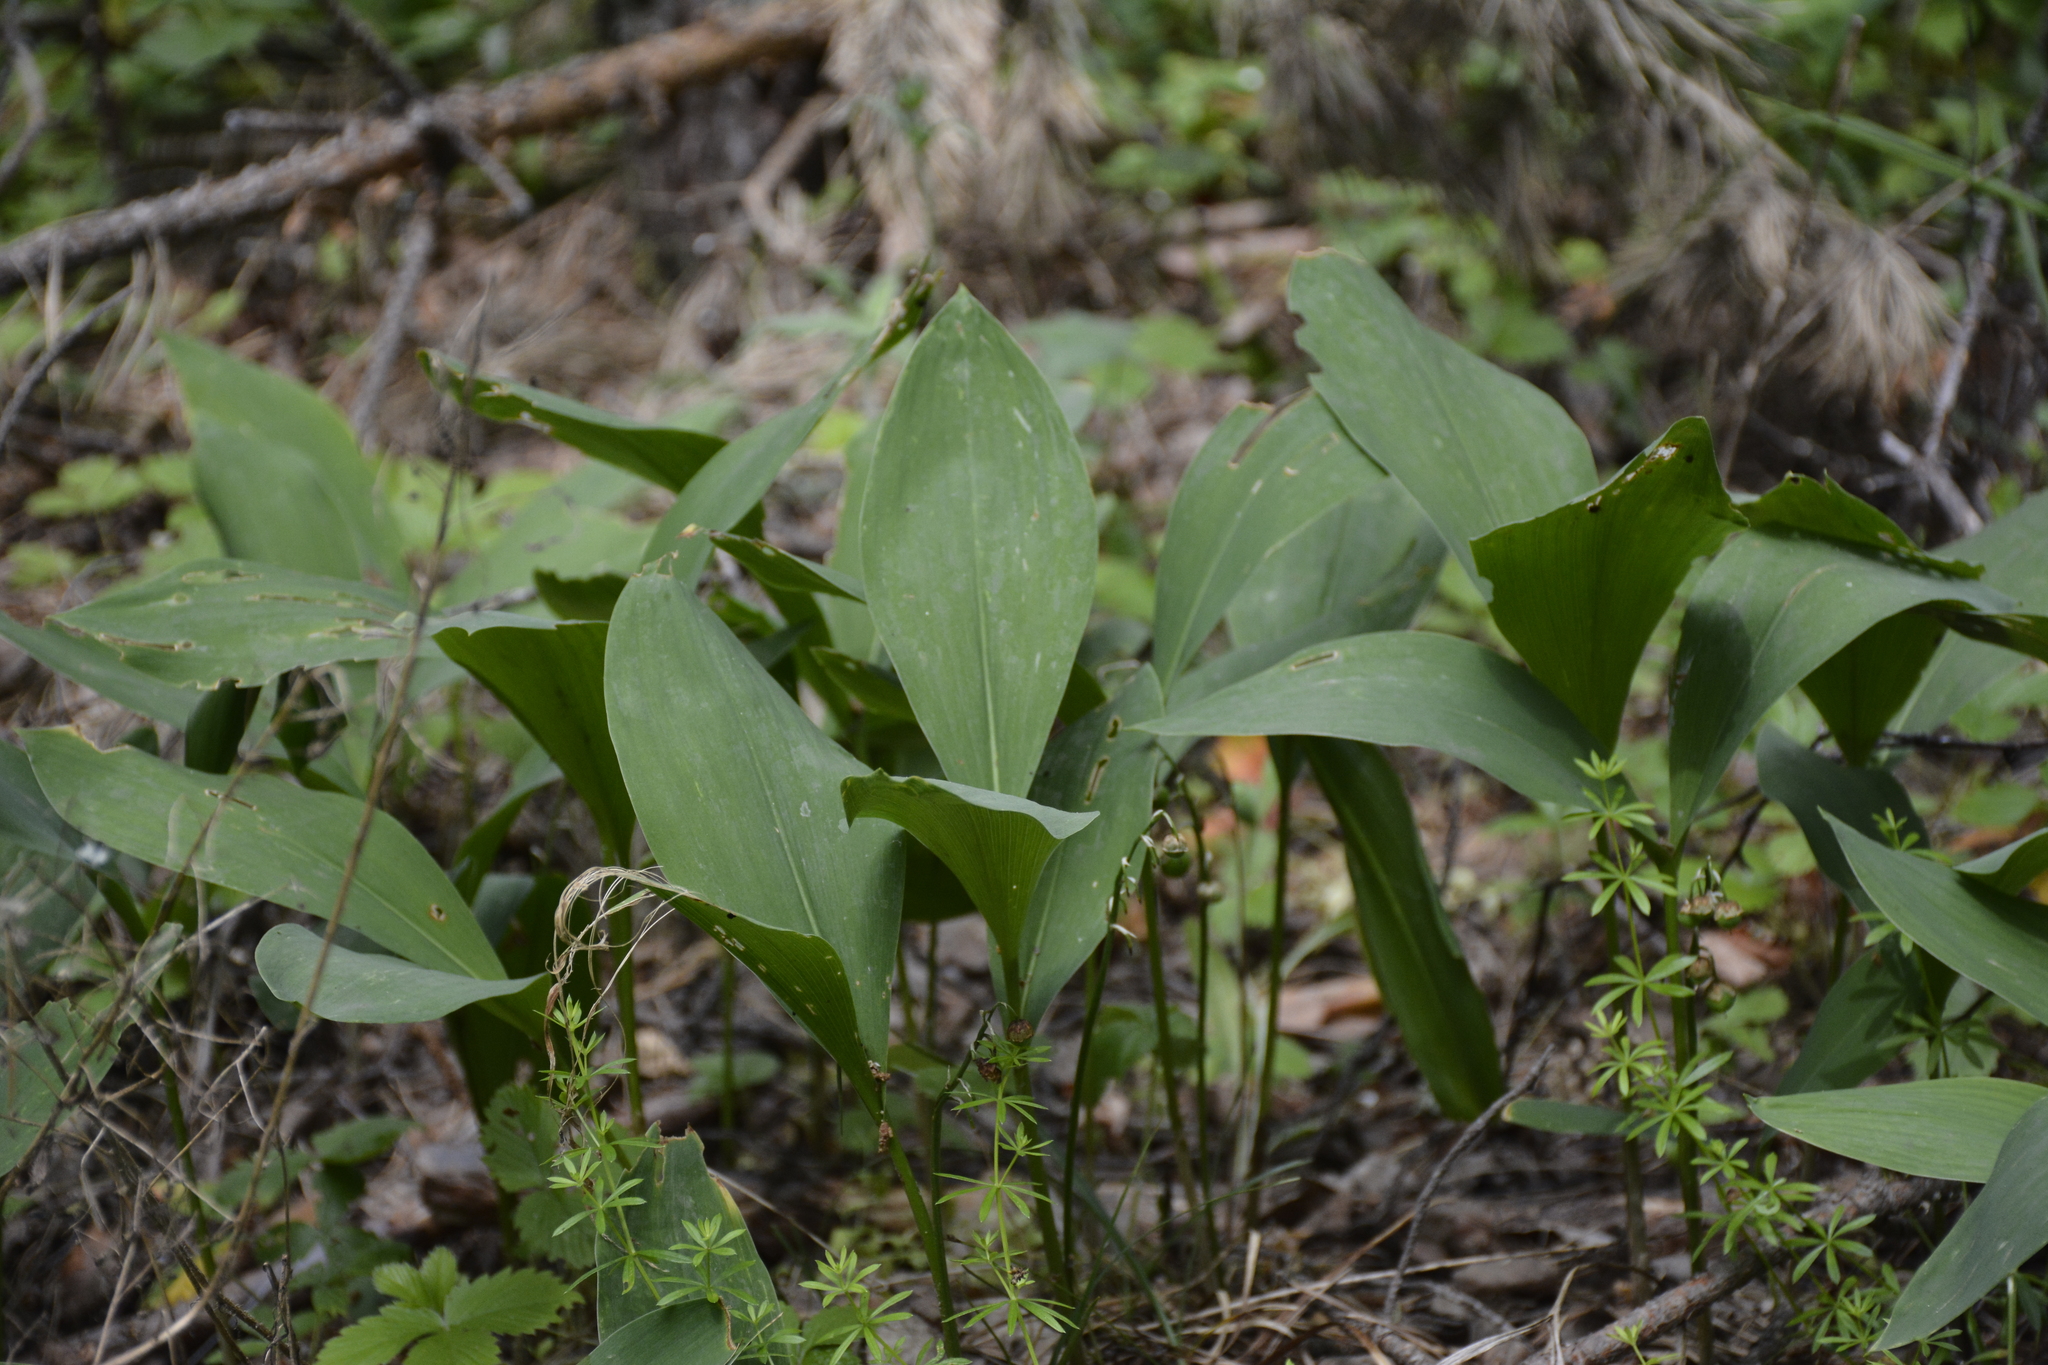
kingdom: Plantae
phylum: Tracheophyta
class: Liliopsida
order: Asparagales
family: Asparagaceae
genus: Convallaria
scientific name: Convallaria majalis
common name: Lily-of-the-valley
